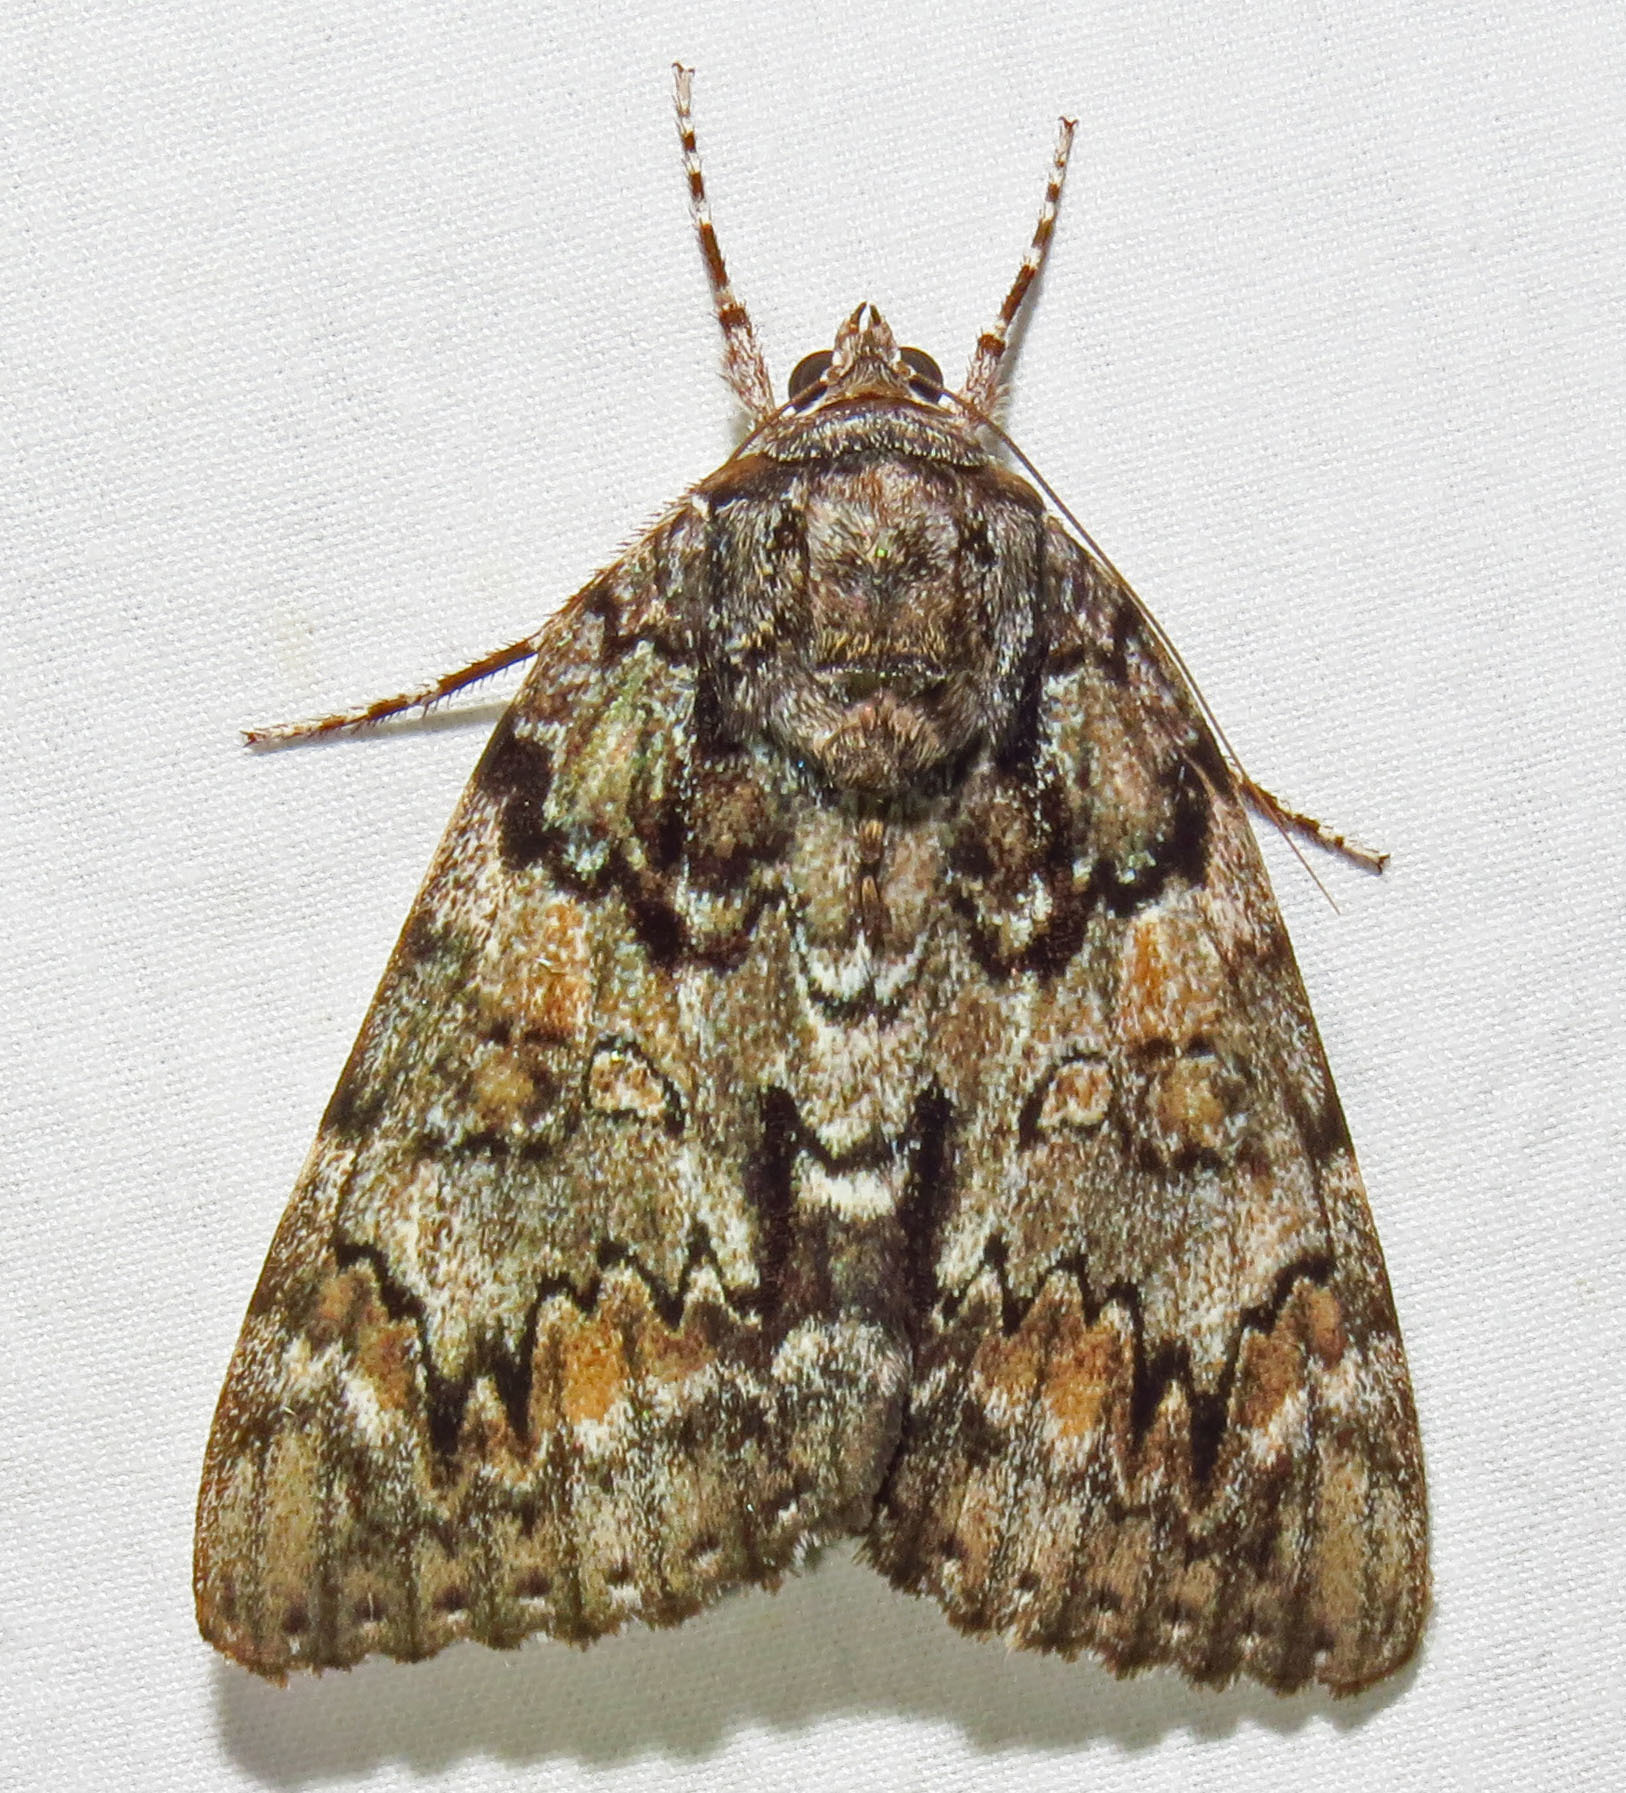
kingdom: Animalia
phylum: Arthropoda
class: Insecta
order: Lepidoptera
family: Erebidae
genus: Catocala
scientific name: Catocala lacrymosa
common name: Tearful underwing
